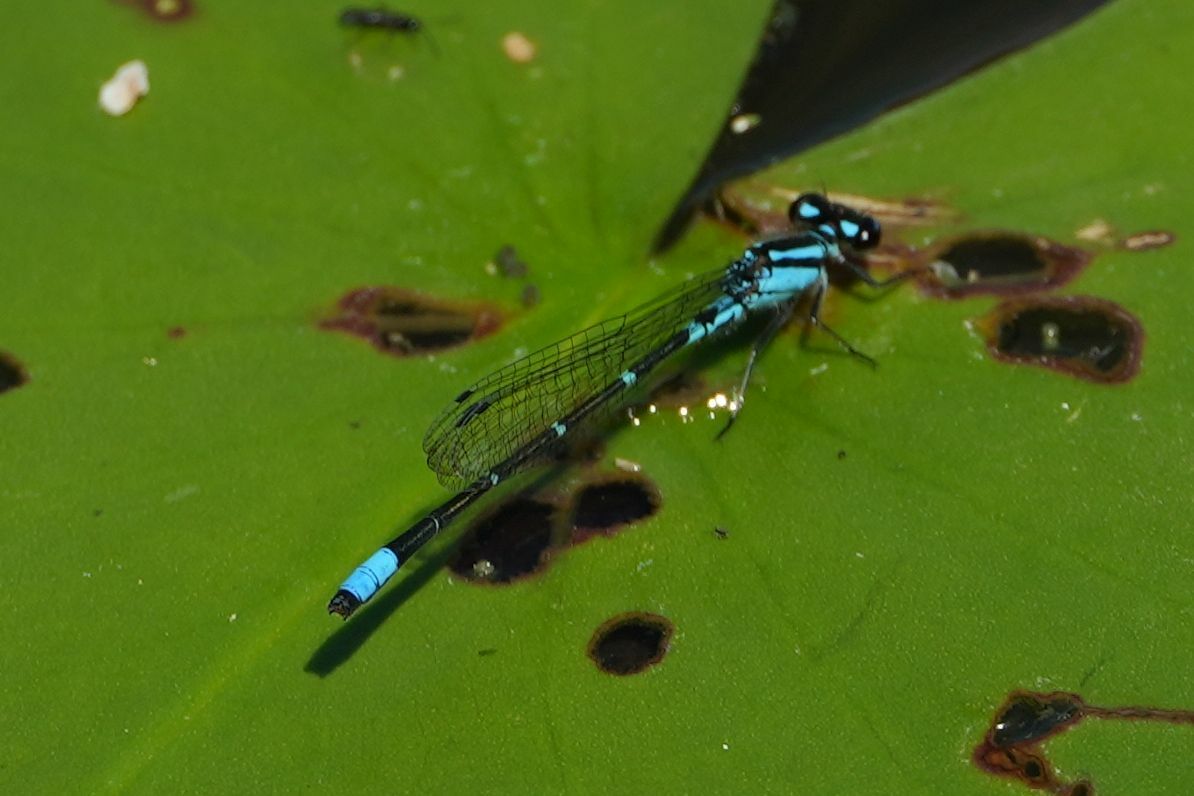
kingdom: Animalia
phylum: Arthropoda
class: Insecta
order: Odonata
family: Coenagrionidae
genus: Enallagma
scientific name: Enallagma geminatum
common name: Skimming bluet
